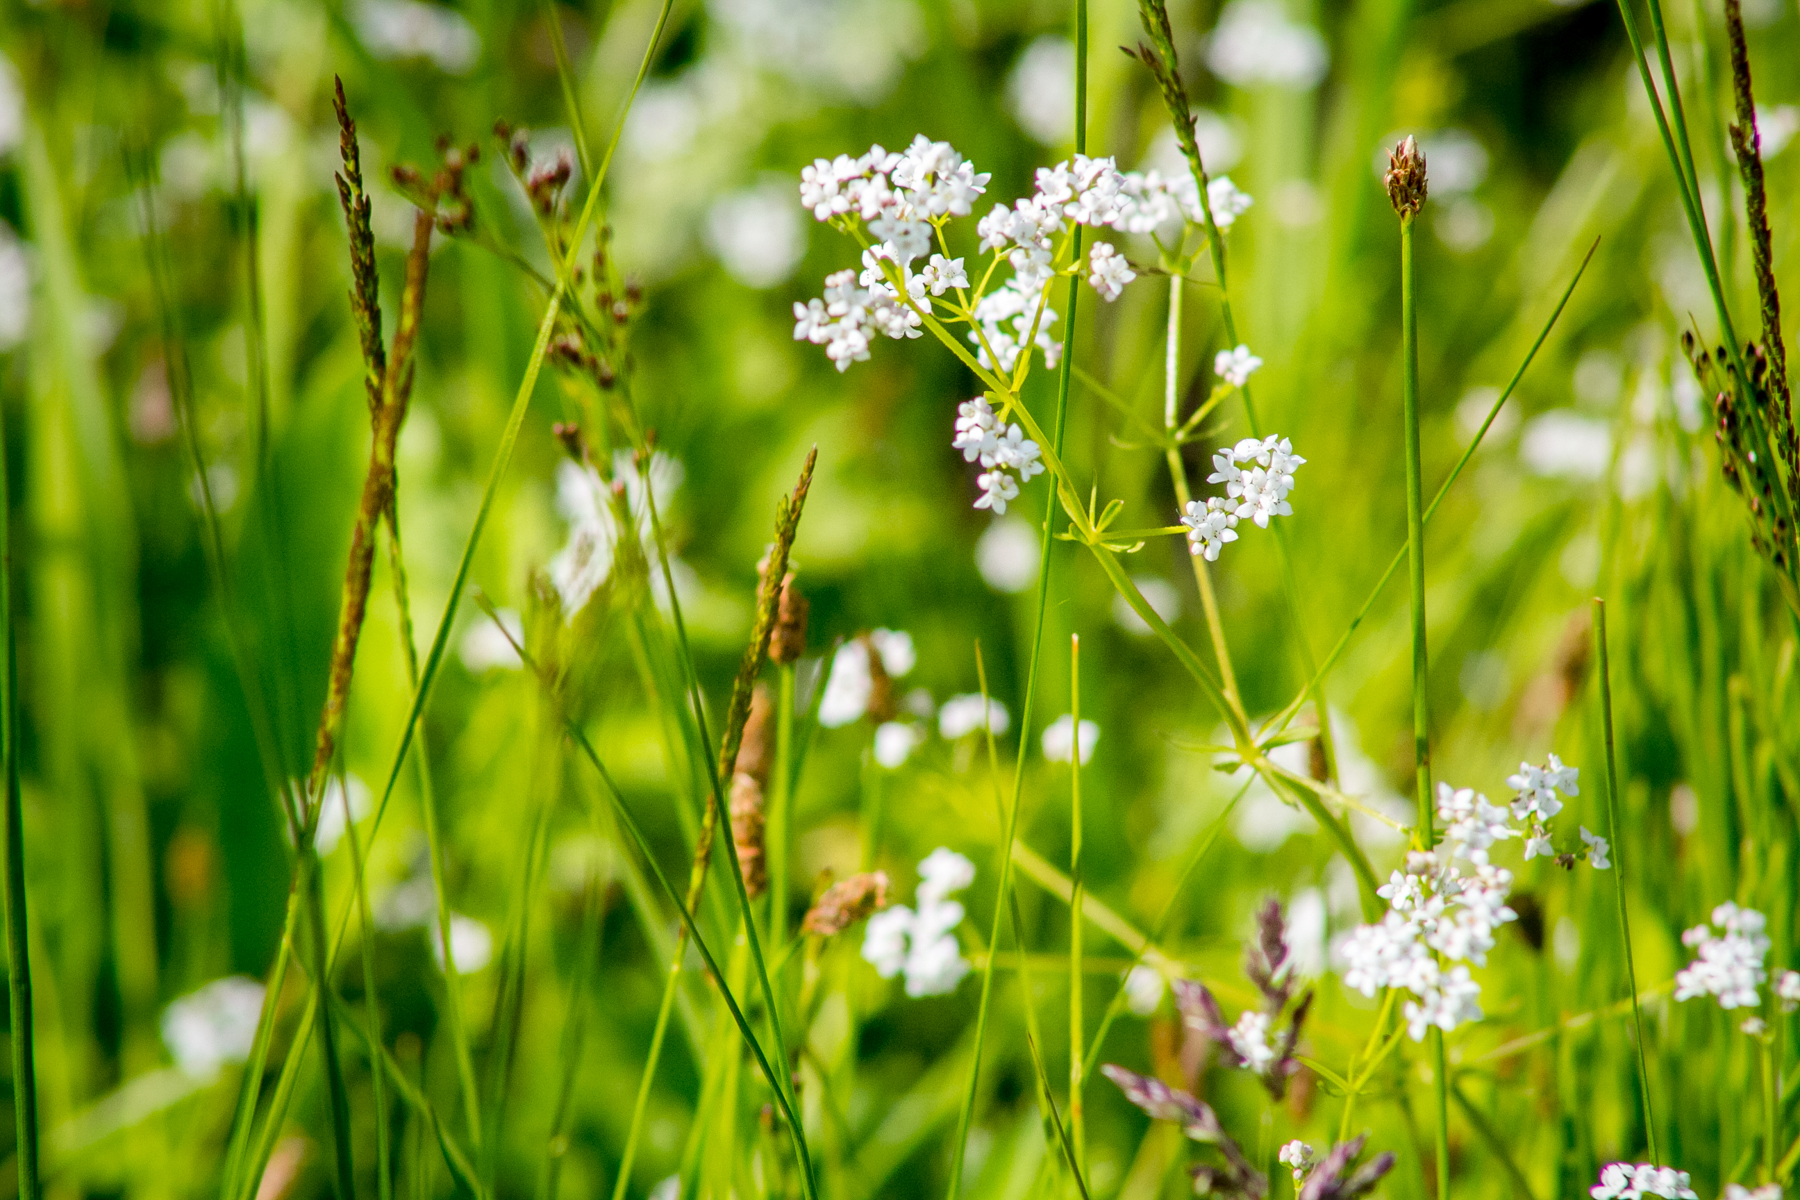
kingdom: Plantae
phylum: Tracheophyta
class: Magnoliopsida
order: Gentianales
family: Rubiaceae
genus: Galium
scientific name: Galium palustre
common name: Common marsh-bedstraw
